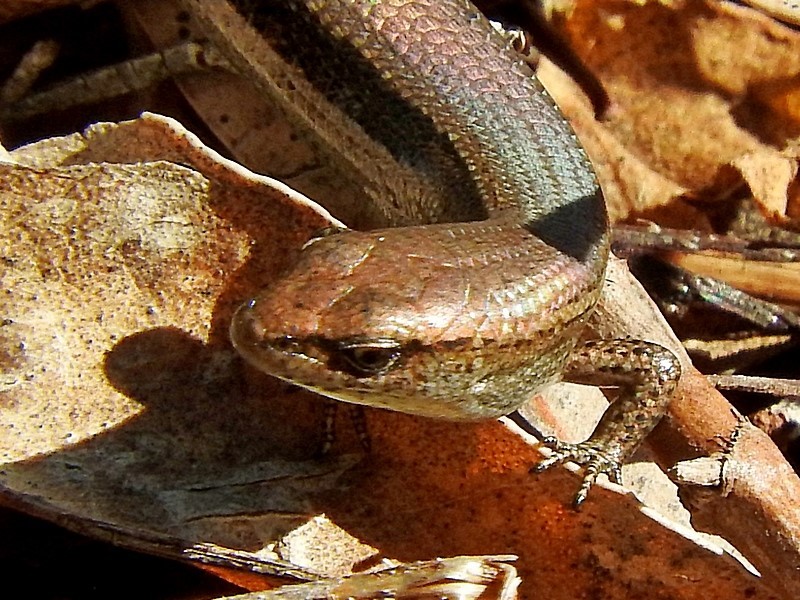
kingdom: Animalia
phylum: Chordata
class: Squamata
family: Scincidae
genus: Lampropholis
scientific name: Lampropholis delicata
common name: Plague skink
